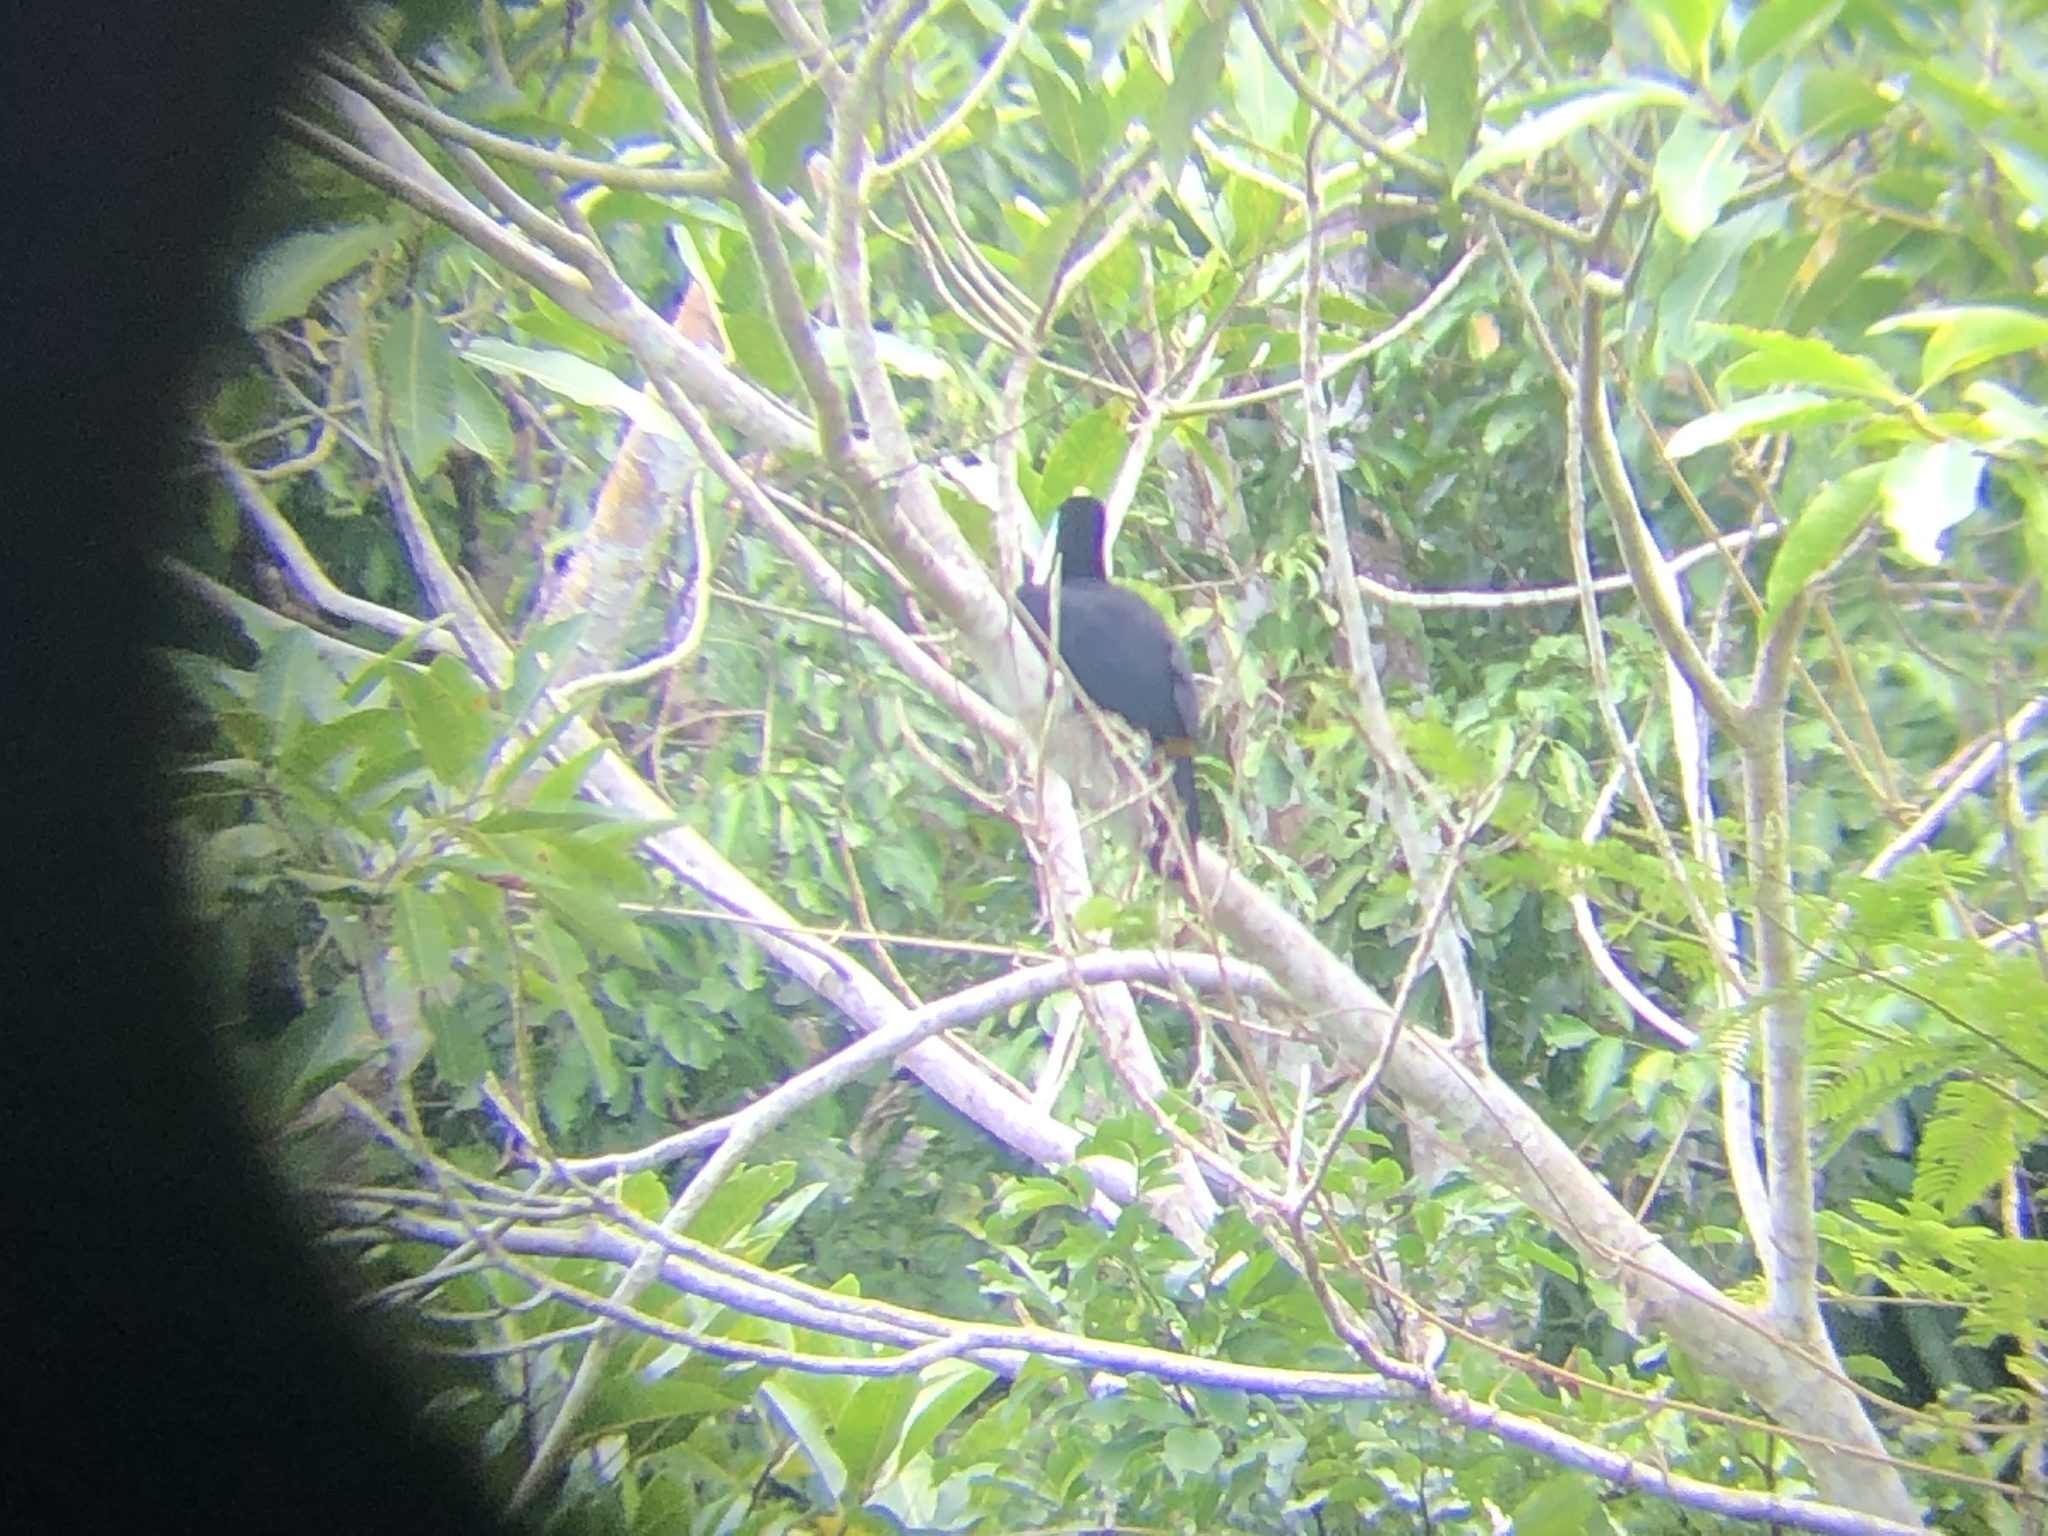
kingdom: Animalia
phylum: Chordata
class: Aves
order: Piciformes
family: Ramphastidae
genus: Ramphastos
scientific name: Ramphastos tucanus
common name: White-throated toucan
